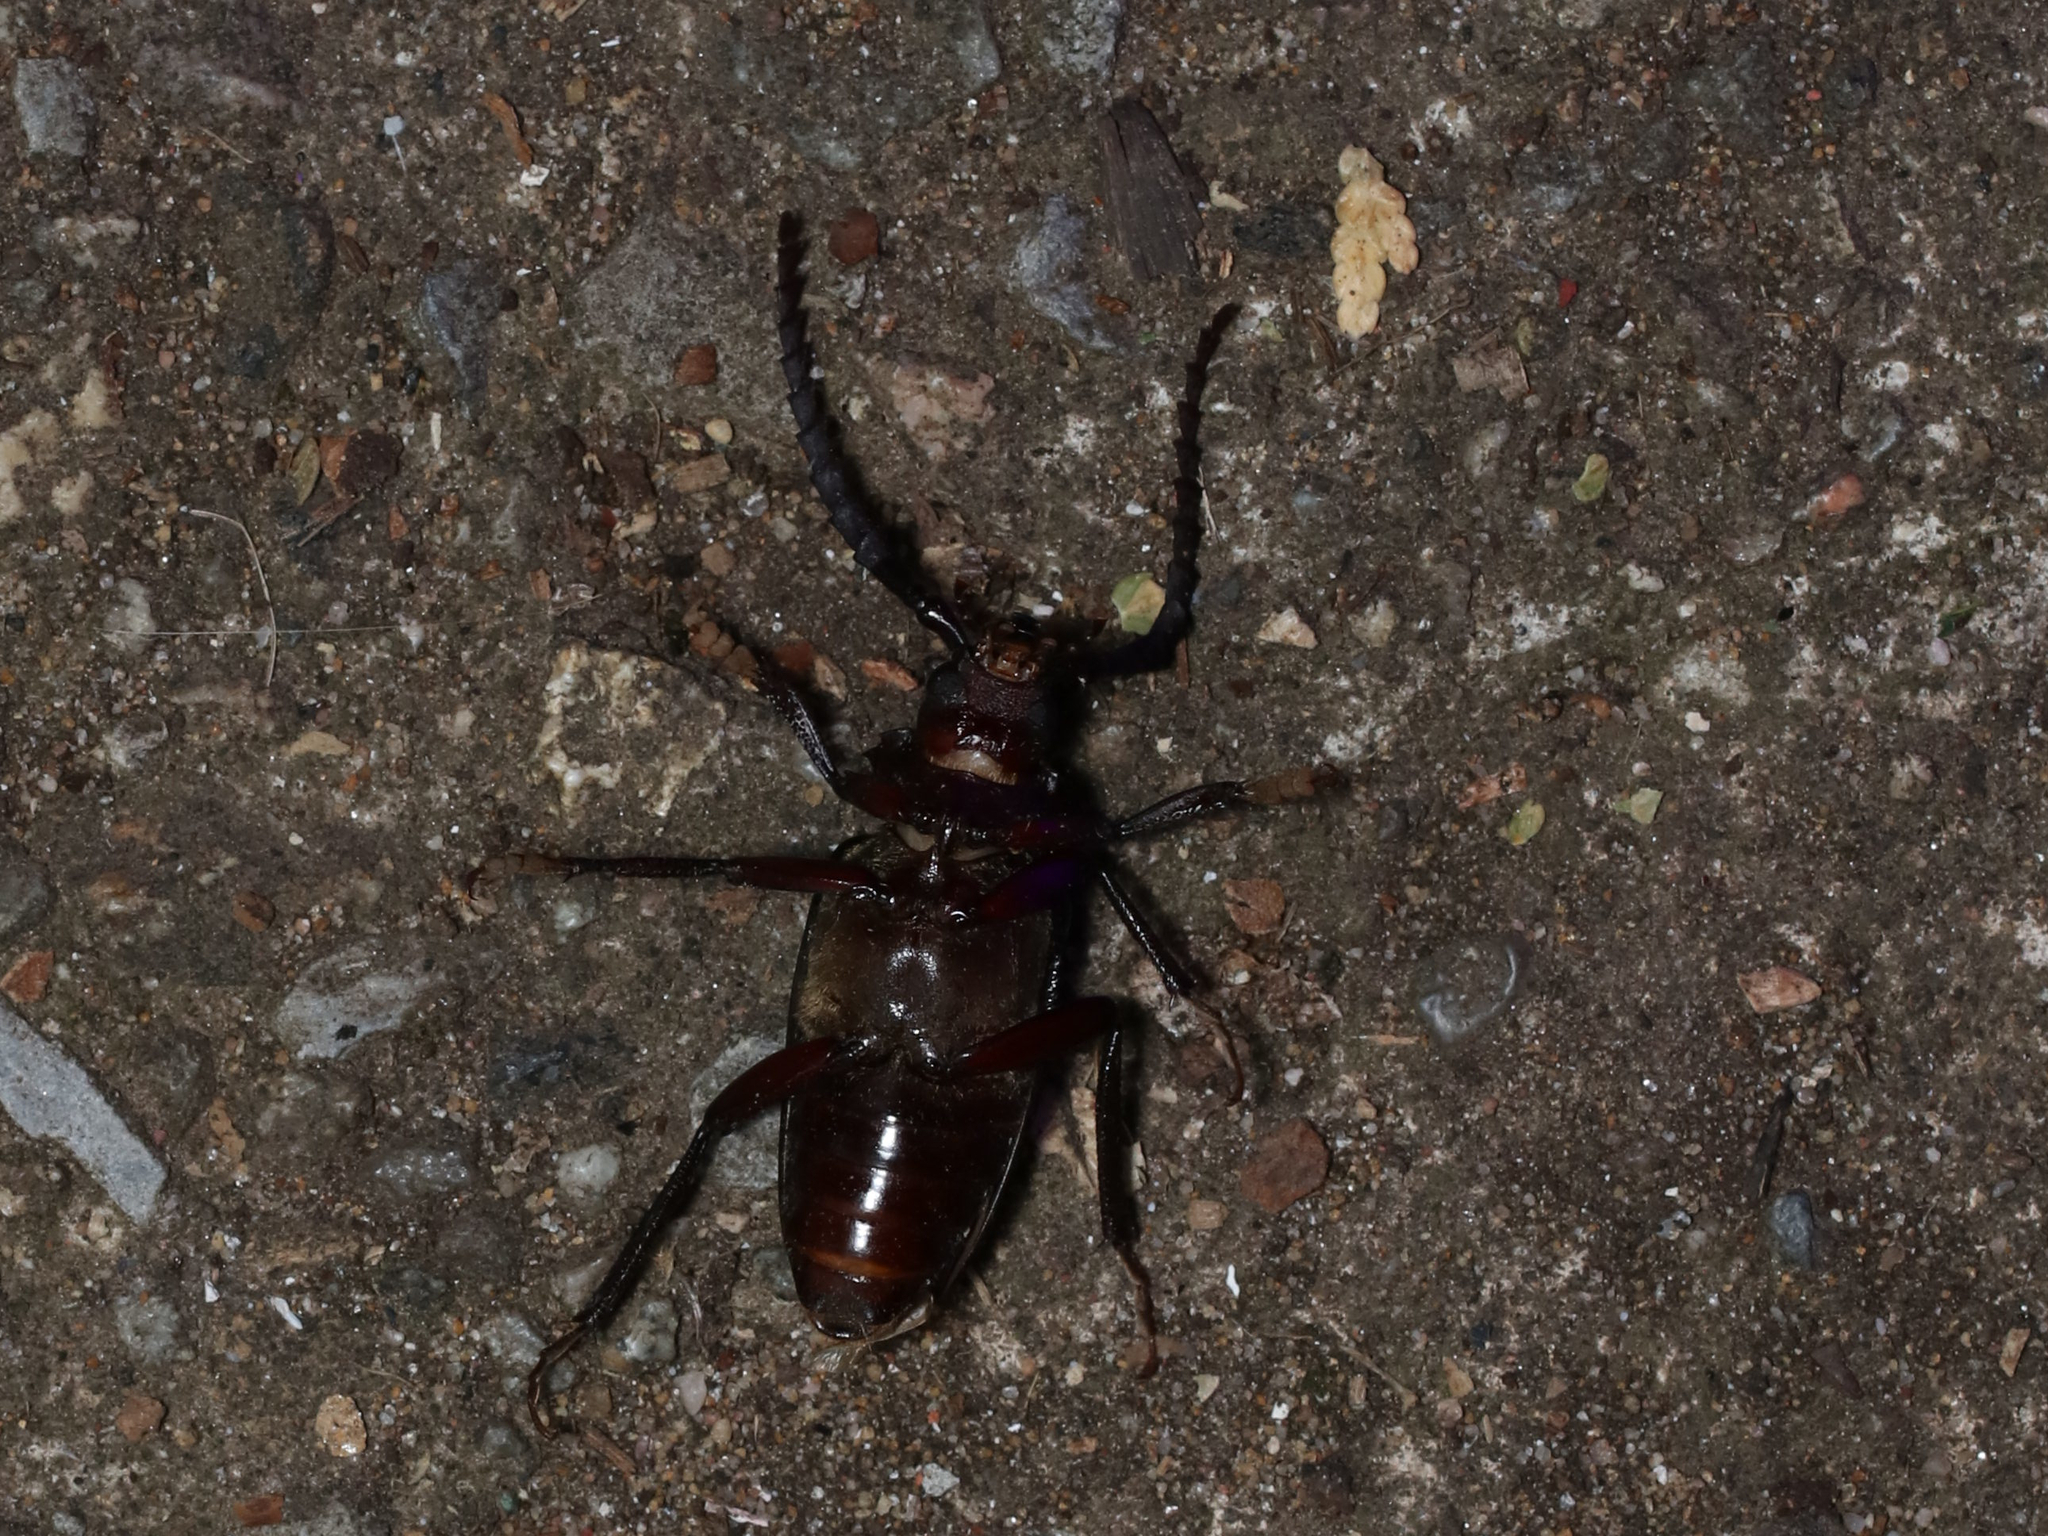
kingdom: Animalia
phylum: Arthropoda
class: Insecta
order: Coleoptera
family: Cerambycidae
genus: Prionus
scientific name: Prionus laticollis
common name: Broad necked prionus
